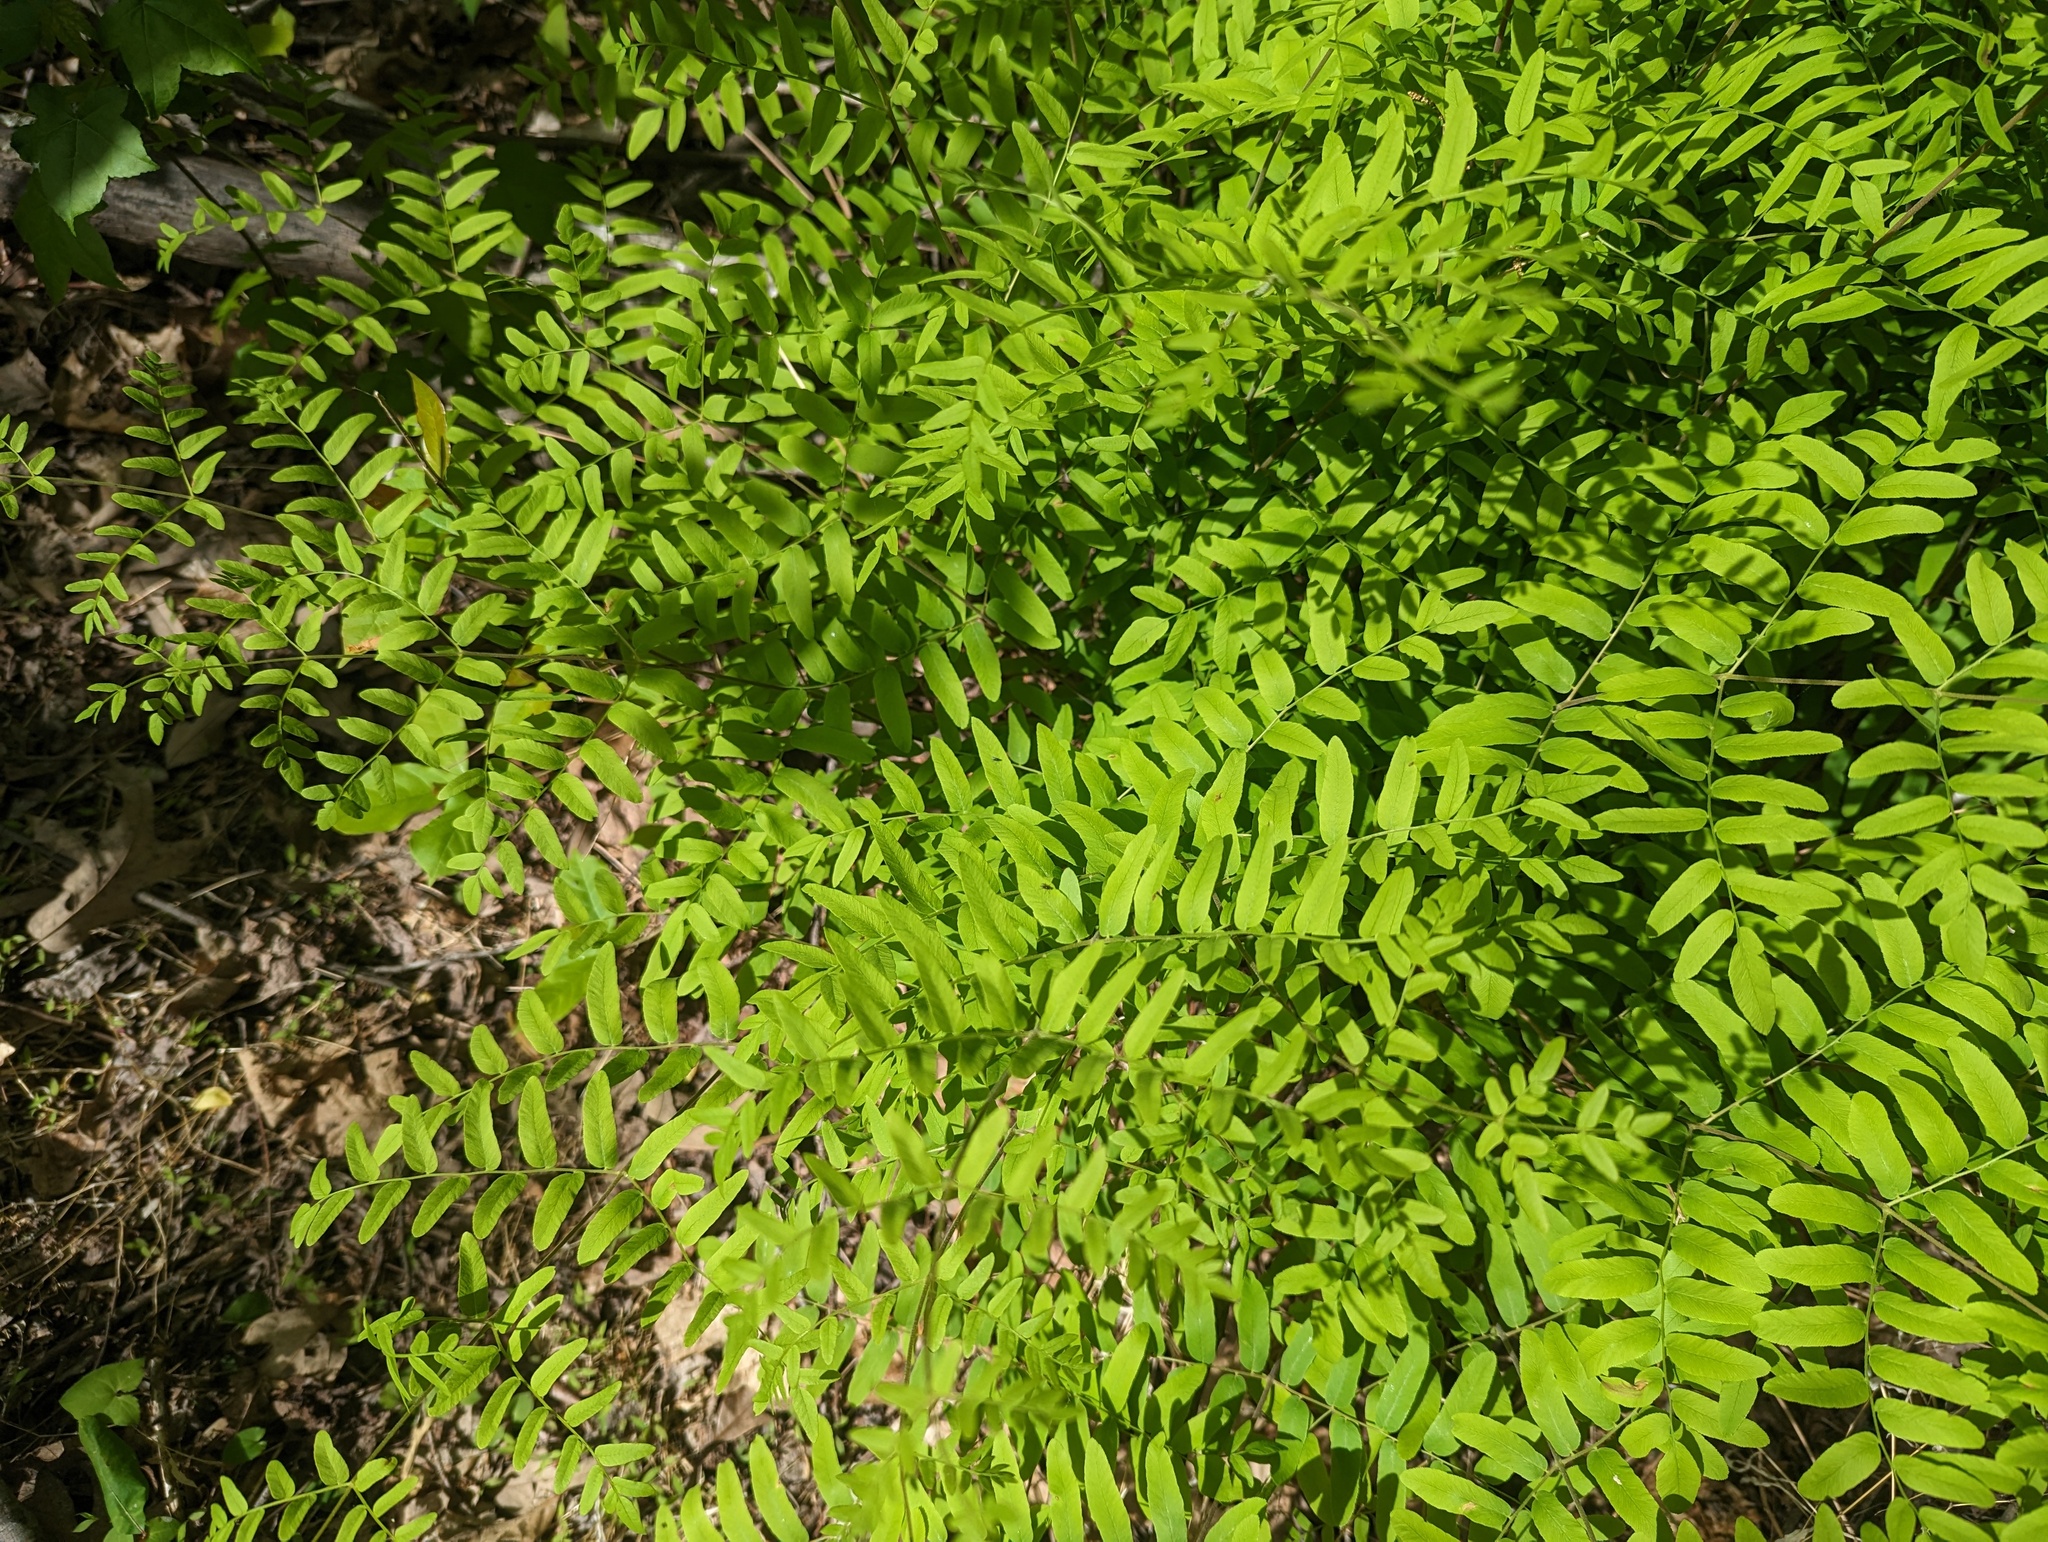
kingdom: Plantae
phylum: Tracheophyta
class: Polypodiopsida
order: Osmundales
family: Osmundaceae
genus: Osmunda
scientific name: Osmunda spectabilis
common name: American royal fern
